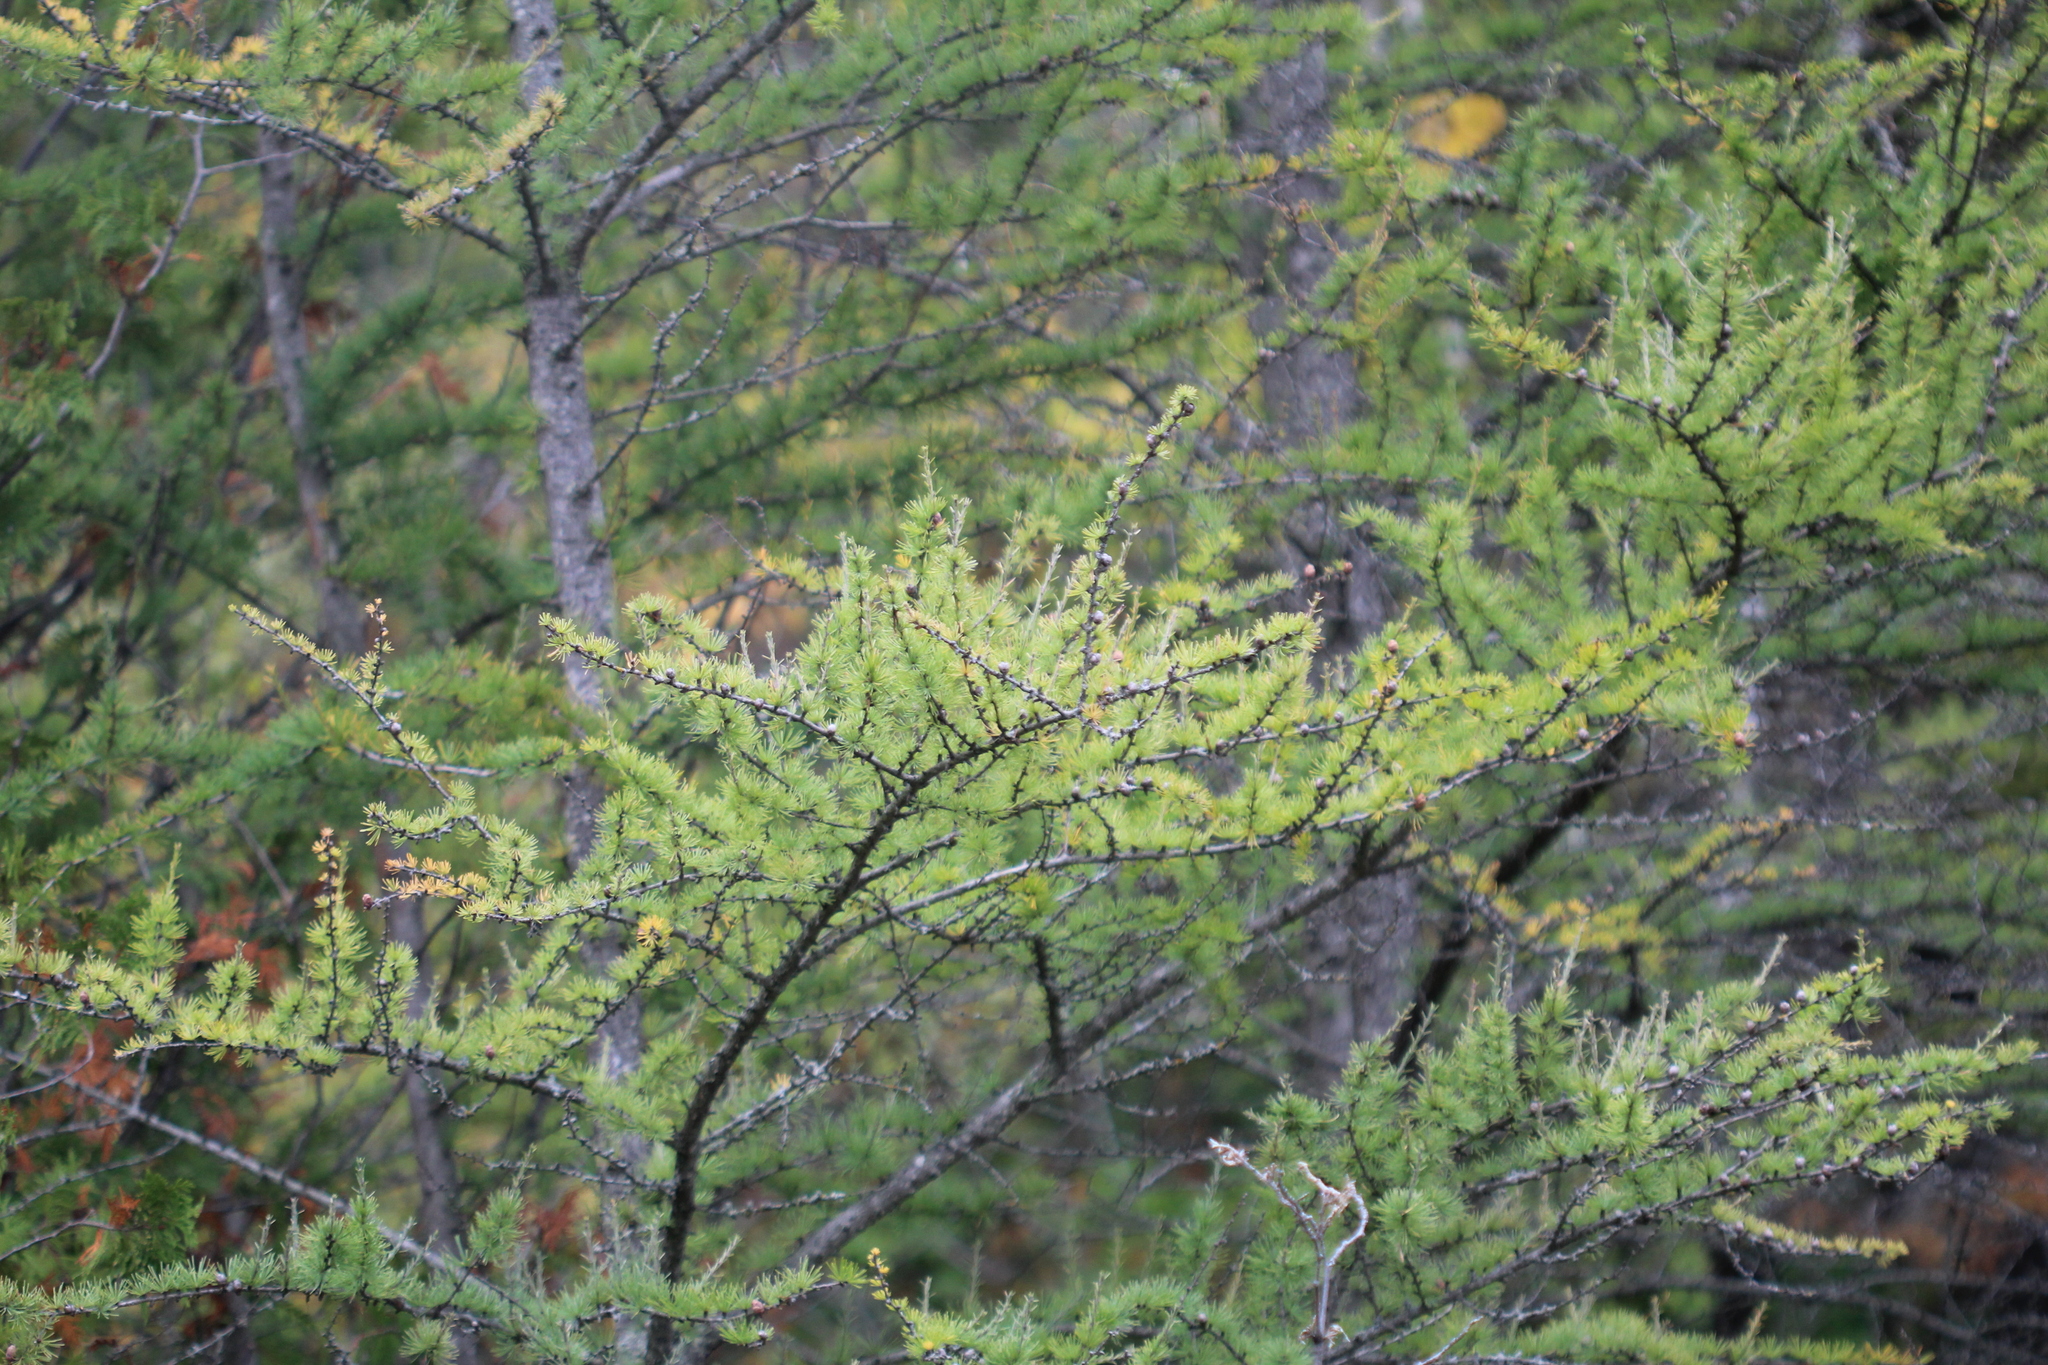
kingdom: Plantae
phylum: Tracheophyta
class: Pinopsida
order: Pinales
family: Pinaceae
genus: Larix
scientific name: Larix laricina
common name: American larch
